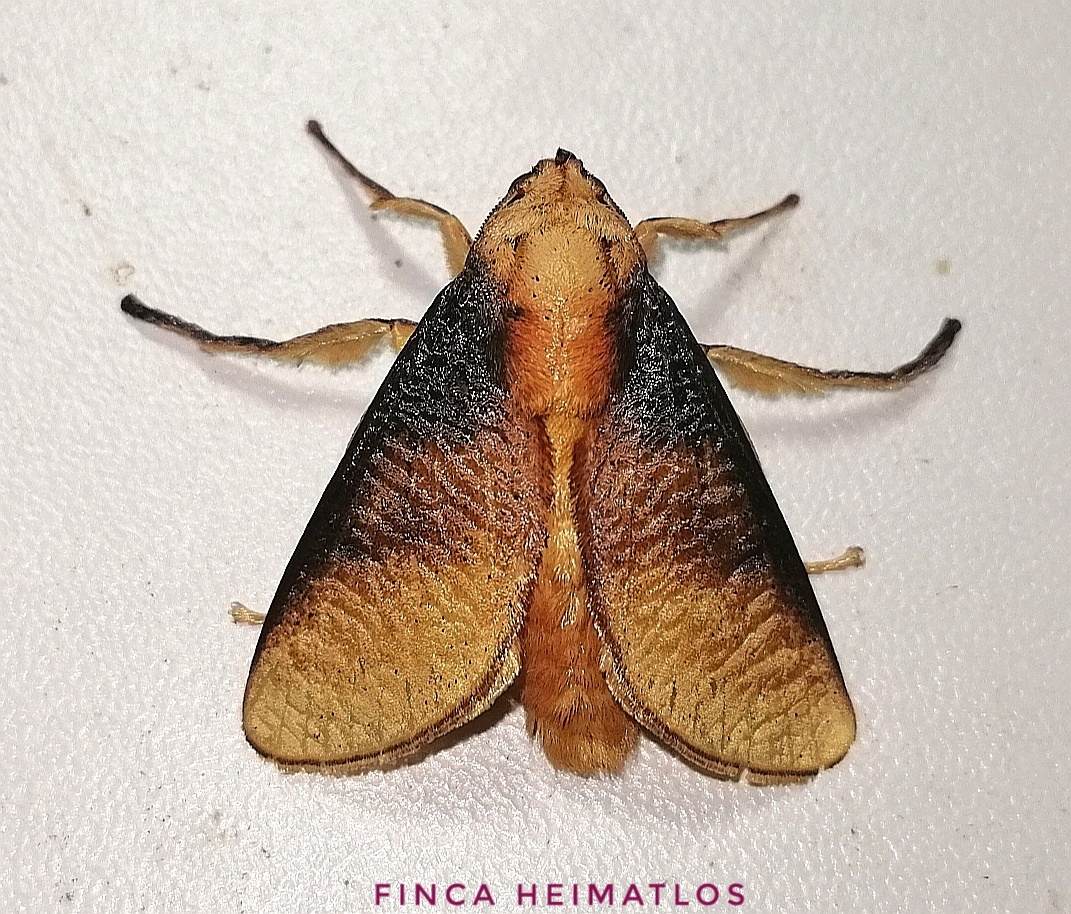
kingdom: Animalia
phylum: Arthropoda
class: Insecta
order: Lepidoptera
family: Limacodidae
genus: Ulamia
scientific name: Ulamia sericea
